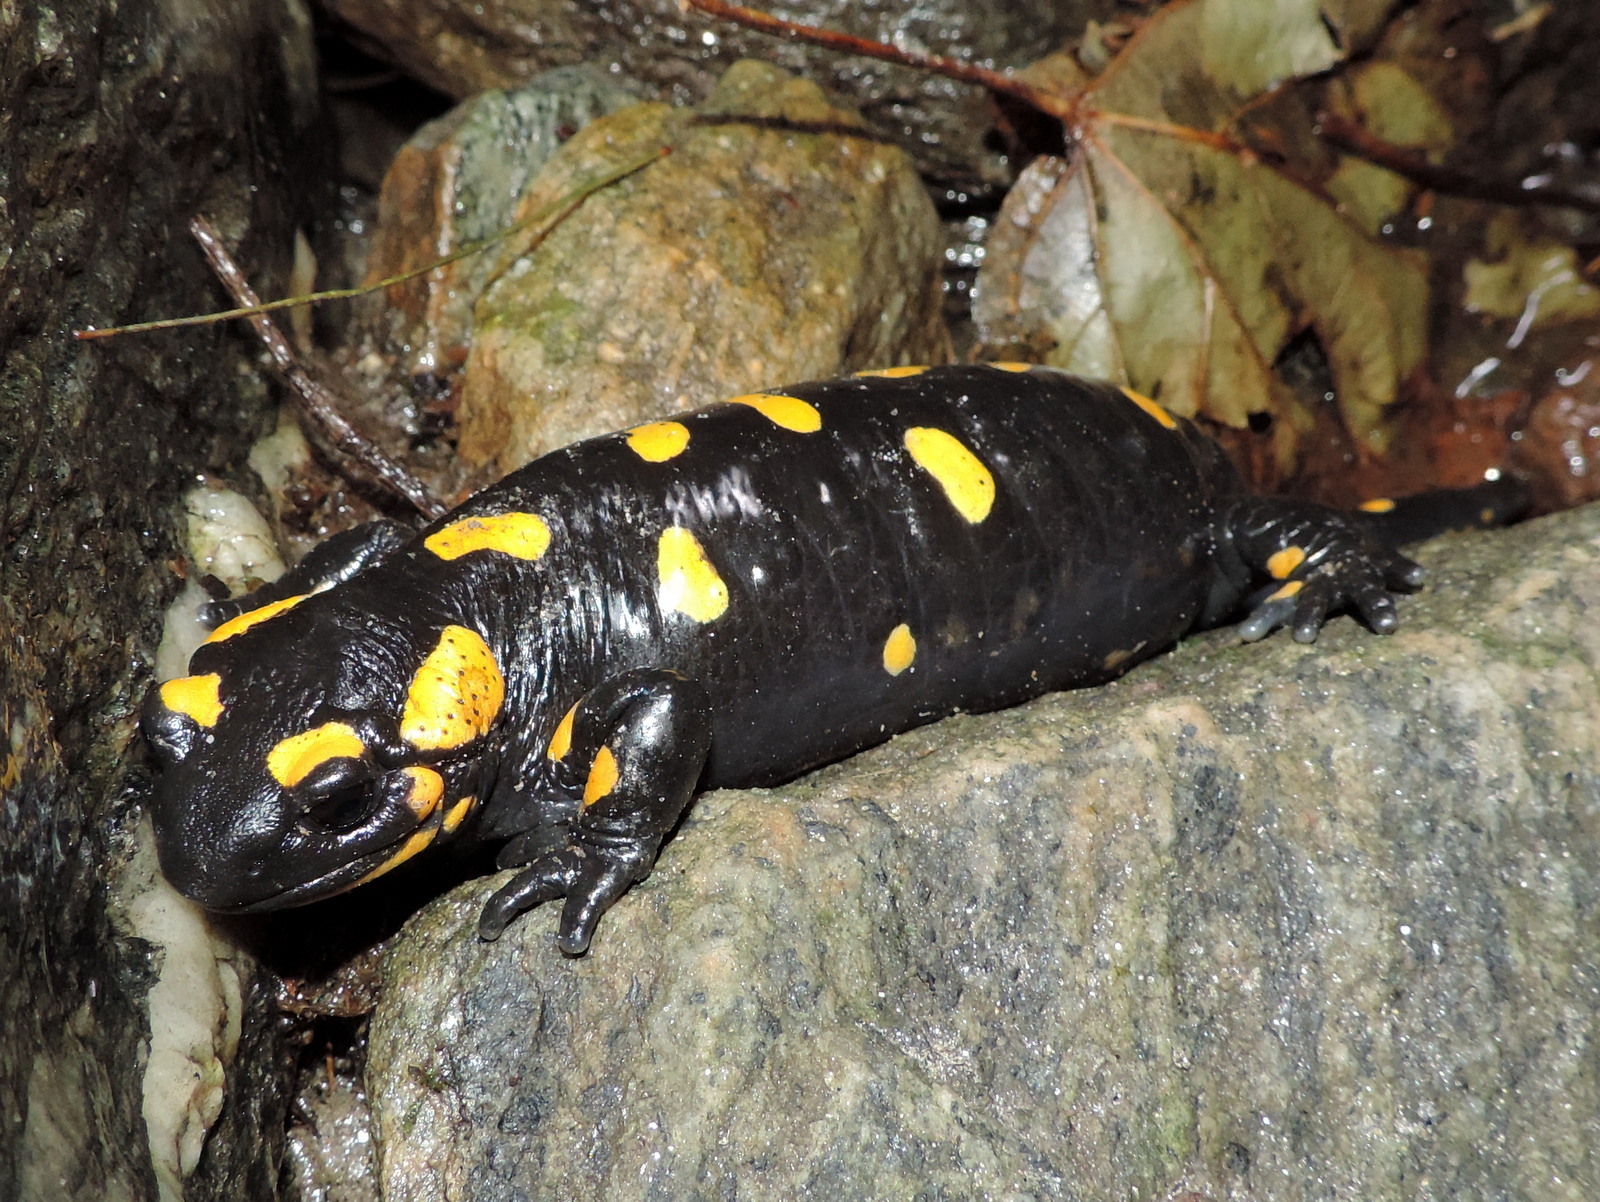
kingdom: Animalia
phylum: Chordata
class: Amphibia
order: Caudata
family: Salamandridae
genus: Salamandra
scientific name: Salamandra salamandra
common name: Fire salamander
